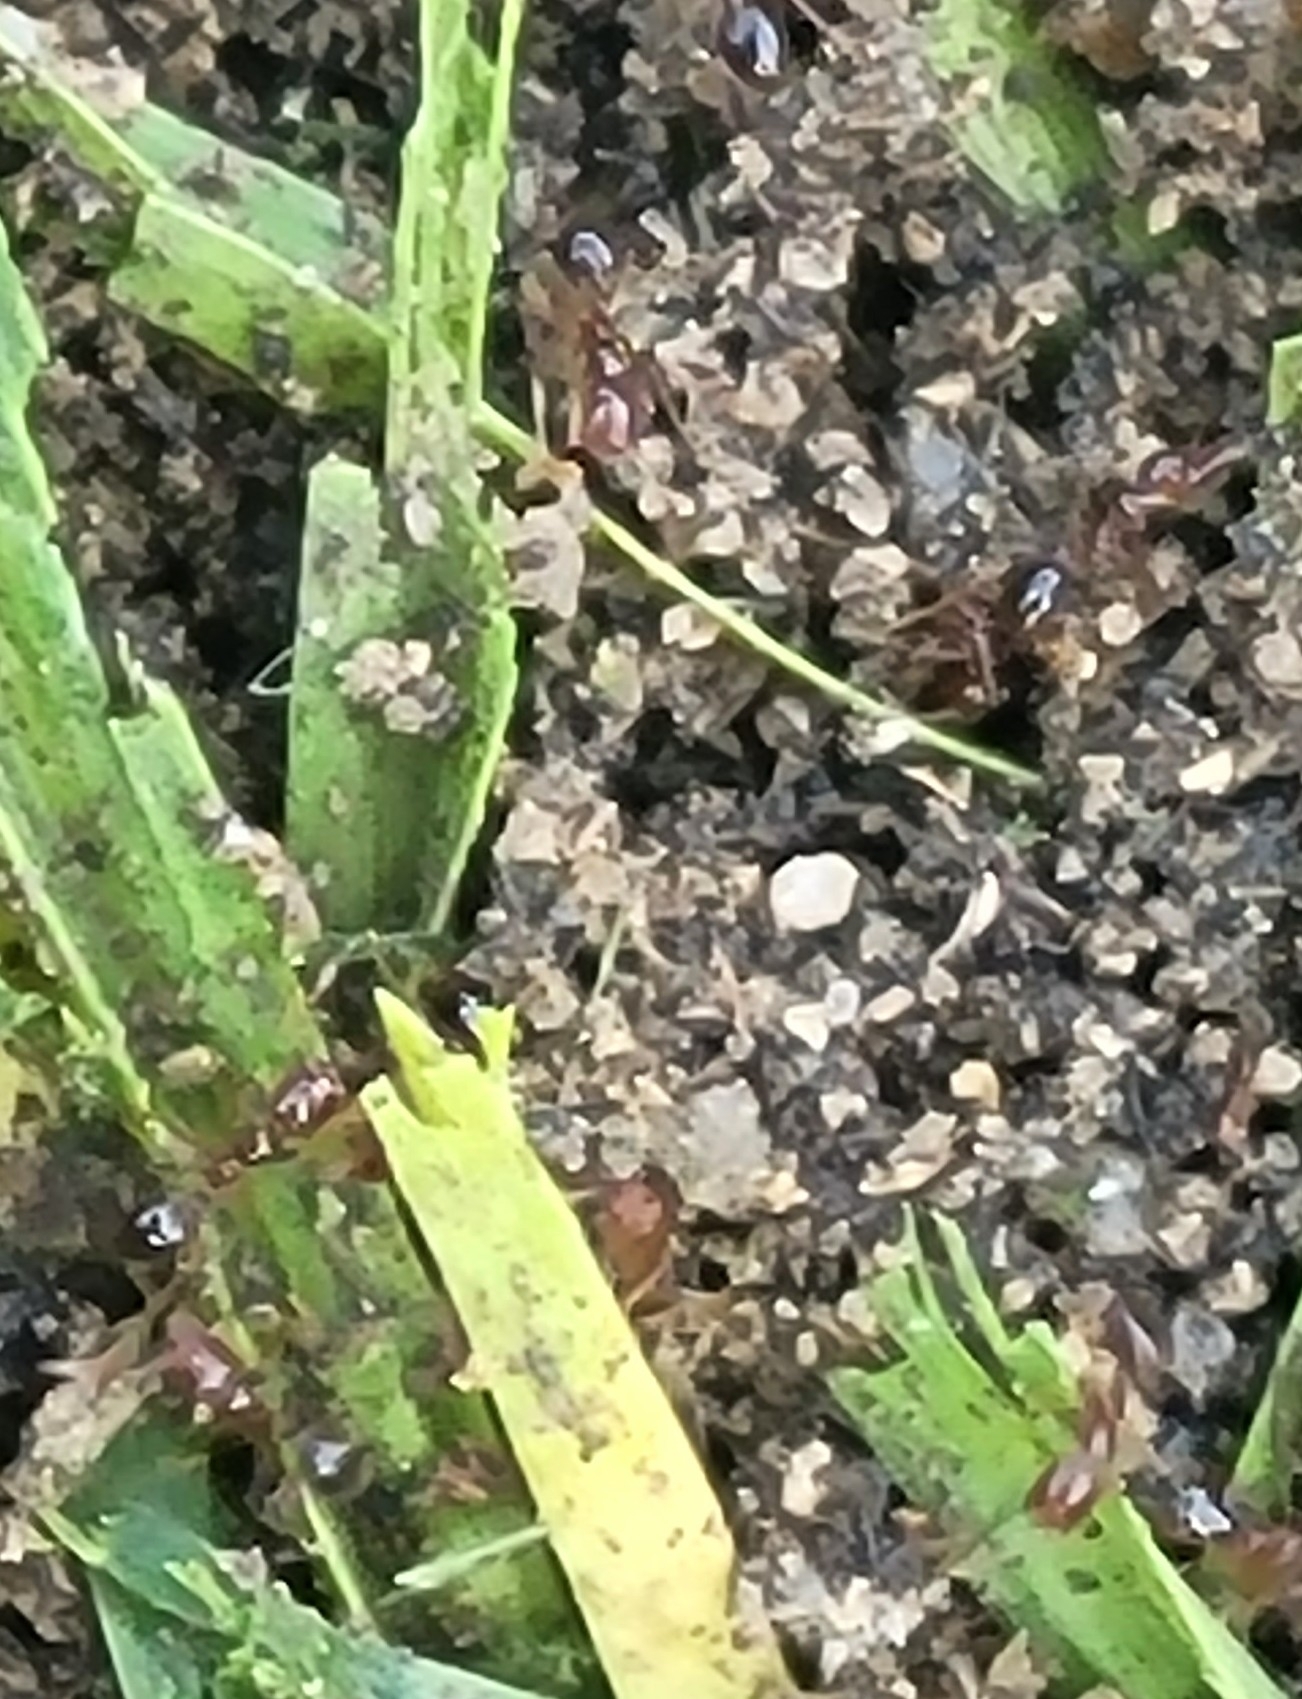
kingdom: Animalia
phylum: Arthropoda
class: Insecta
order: Hymenoptera
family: Formicidae
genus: Solenopsis
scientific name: Solenopsis invicta
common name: Red imported fire ant
